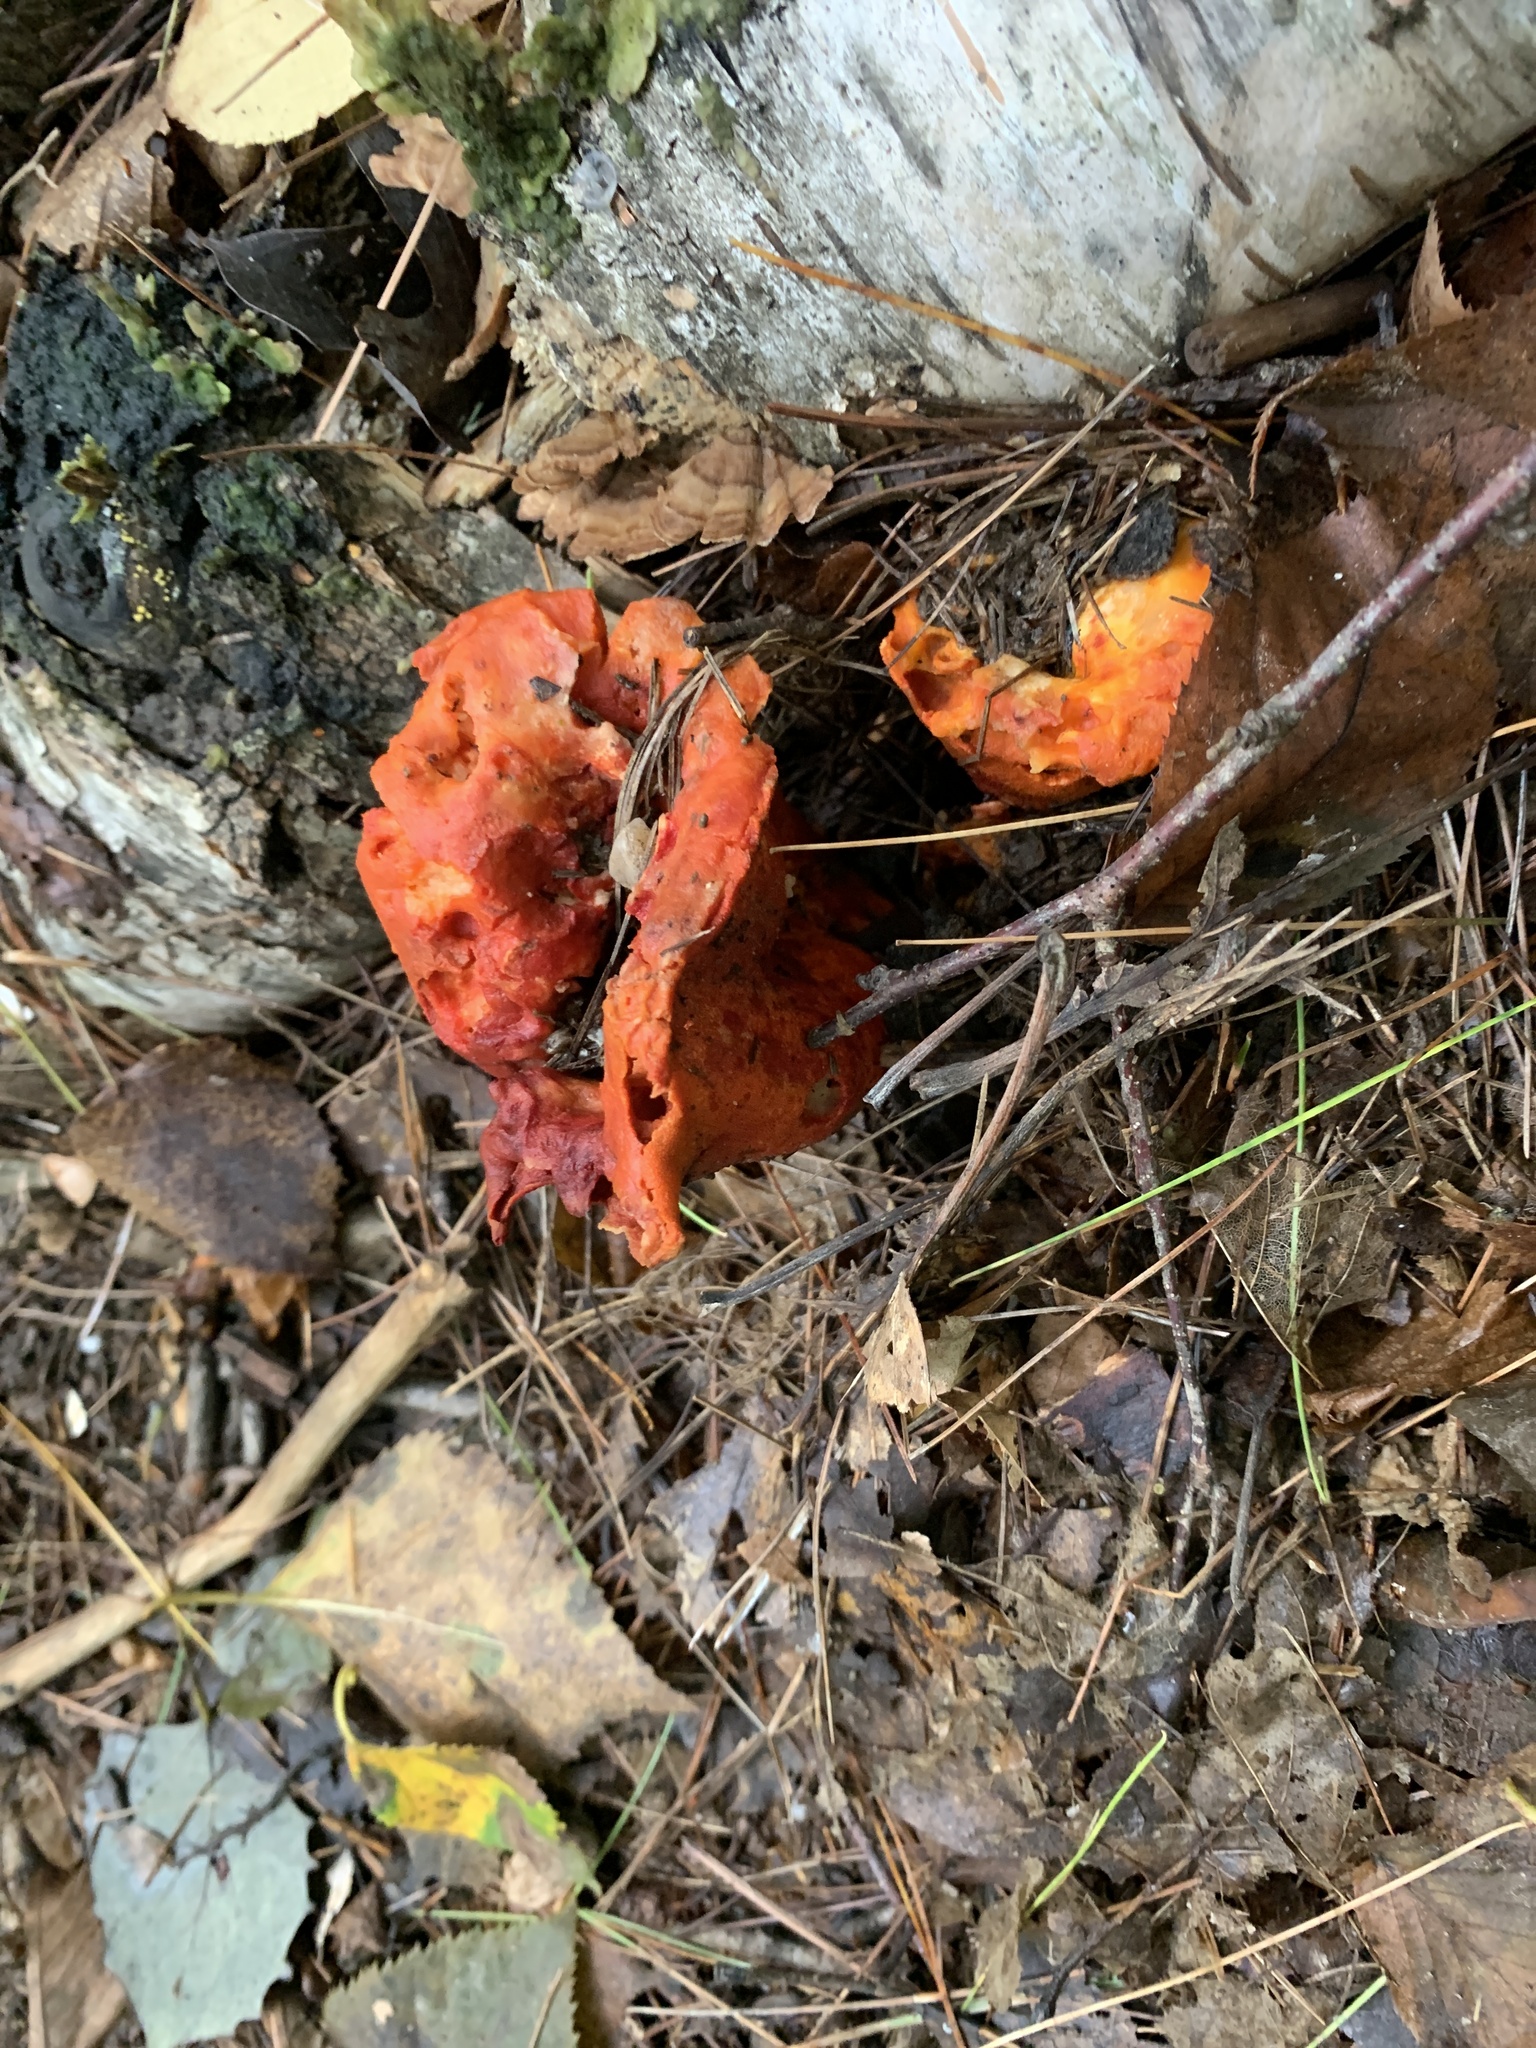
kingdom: Fungi
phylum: Ascomycota
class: Sordariomycetes
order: Hypocreales
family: Hypocreaceae
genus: Hypomyces
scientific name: Hypomyces lactifluorum
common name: Lobster mushroom
